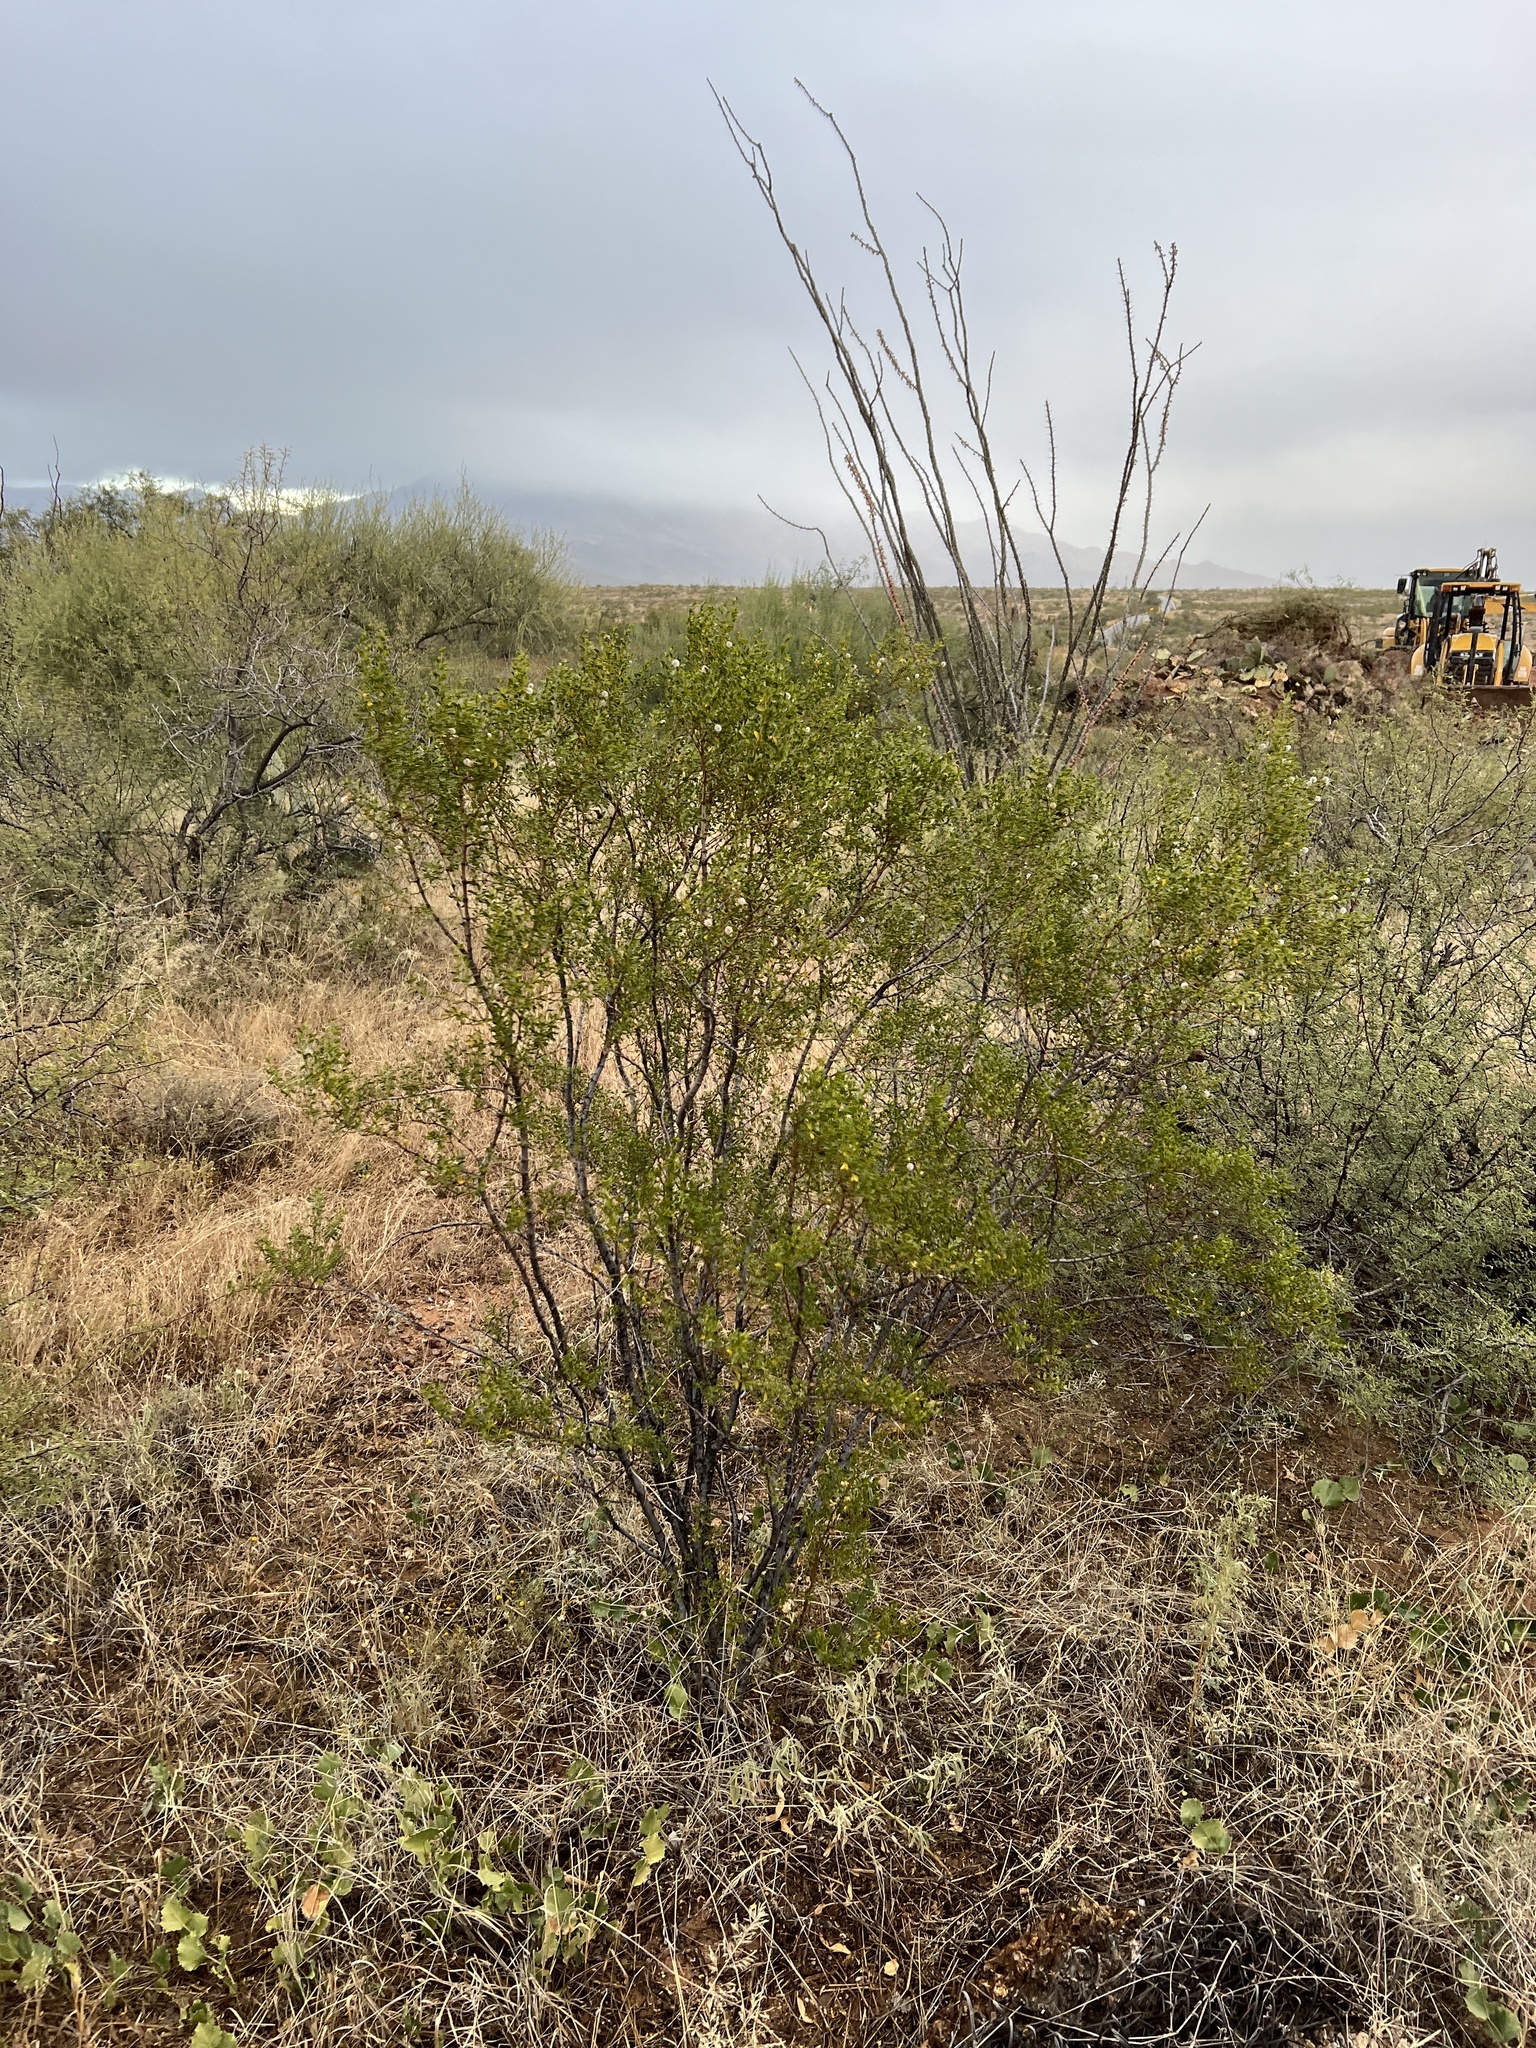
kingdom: Plantae
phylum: Tracheophyta
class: Magnoliopsida
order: Zygophyllales
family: Zygophyllaceae
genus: Larrea
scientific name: Larrea tridentata
